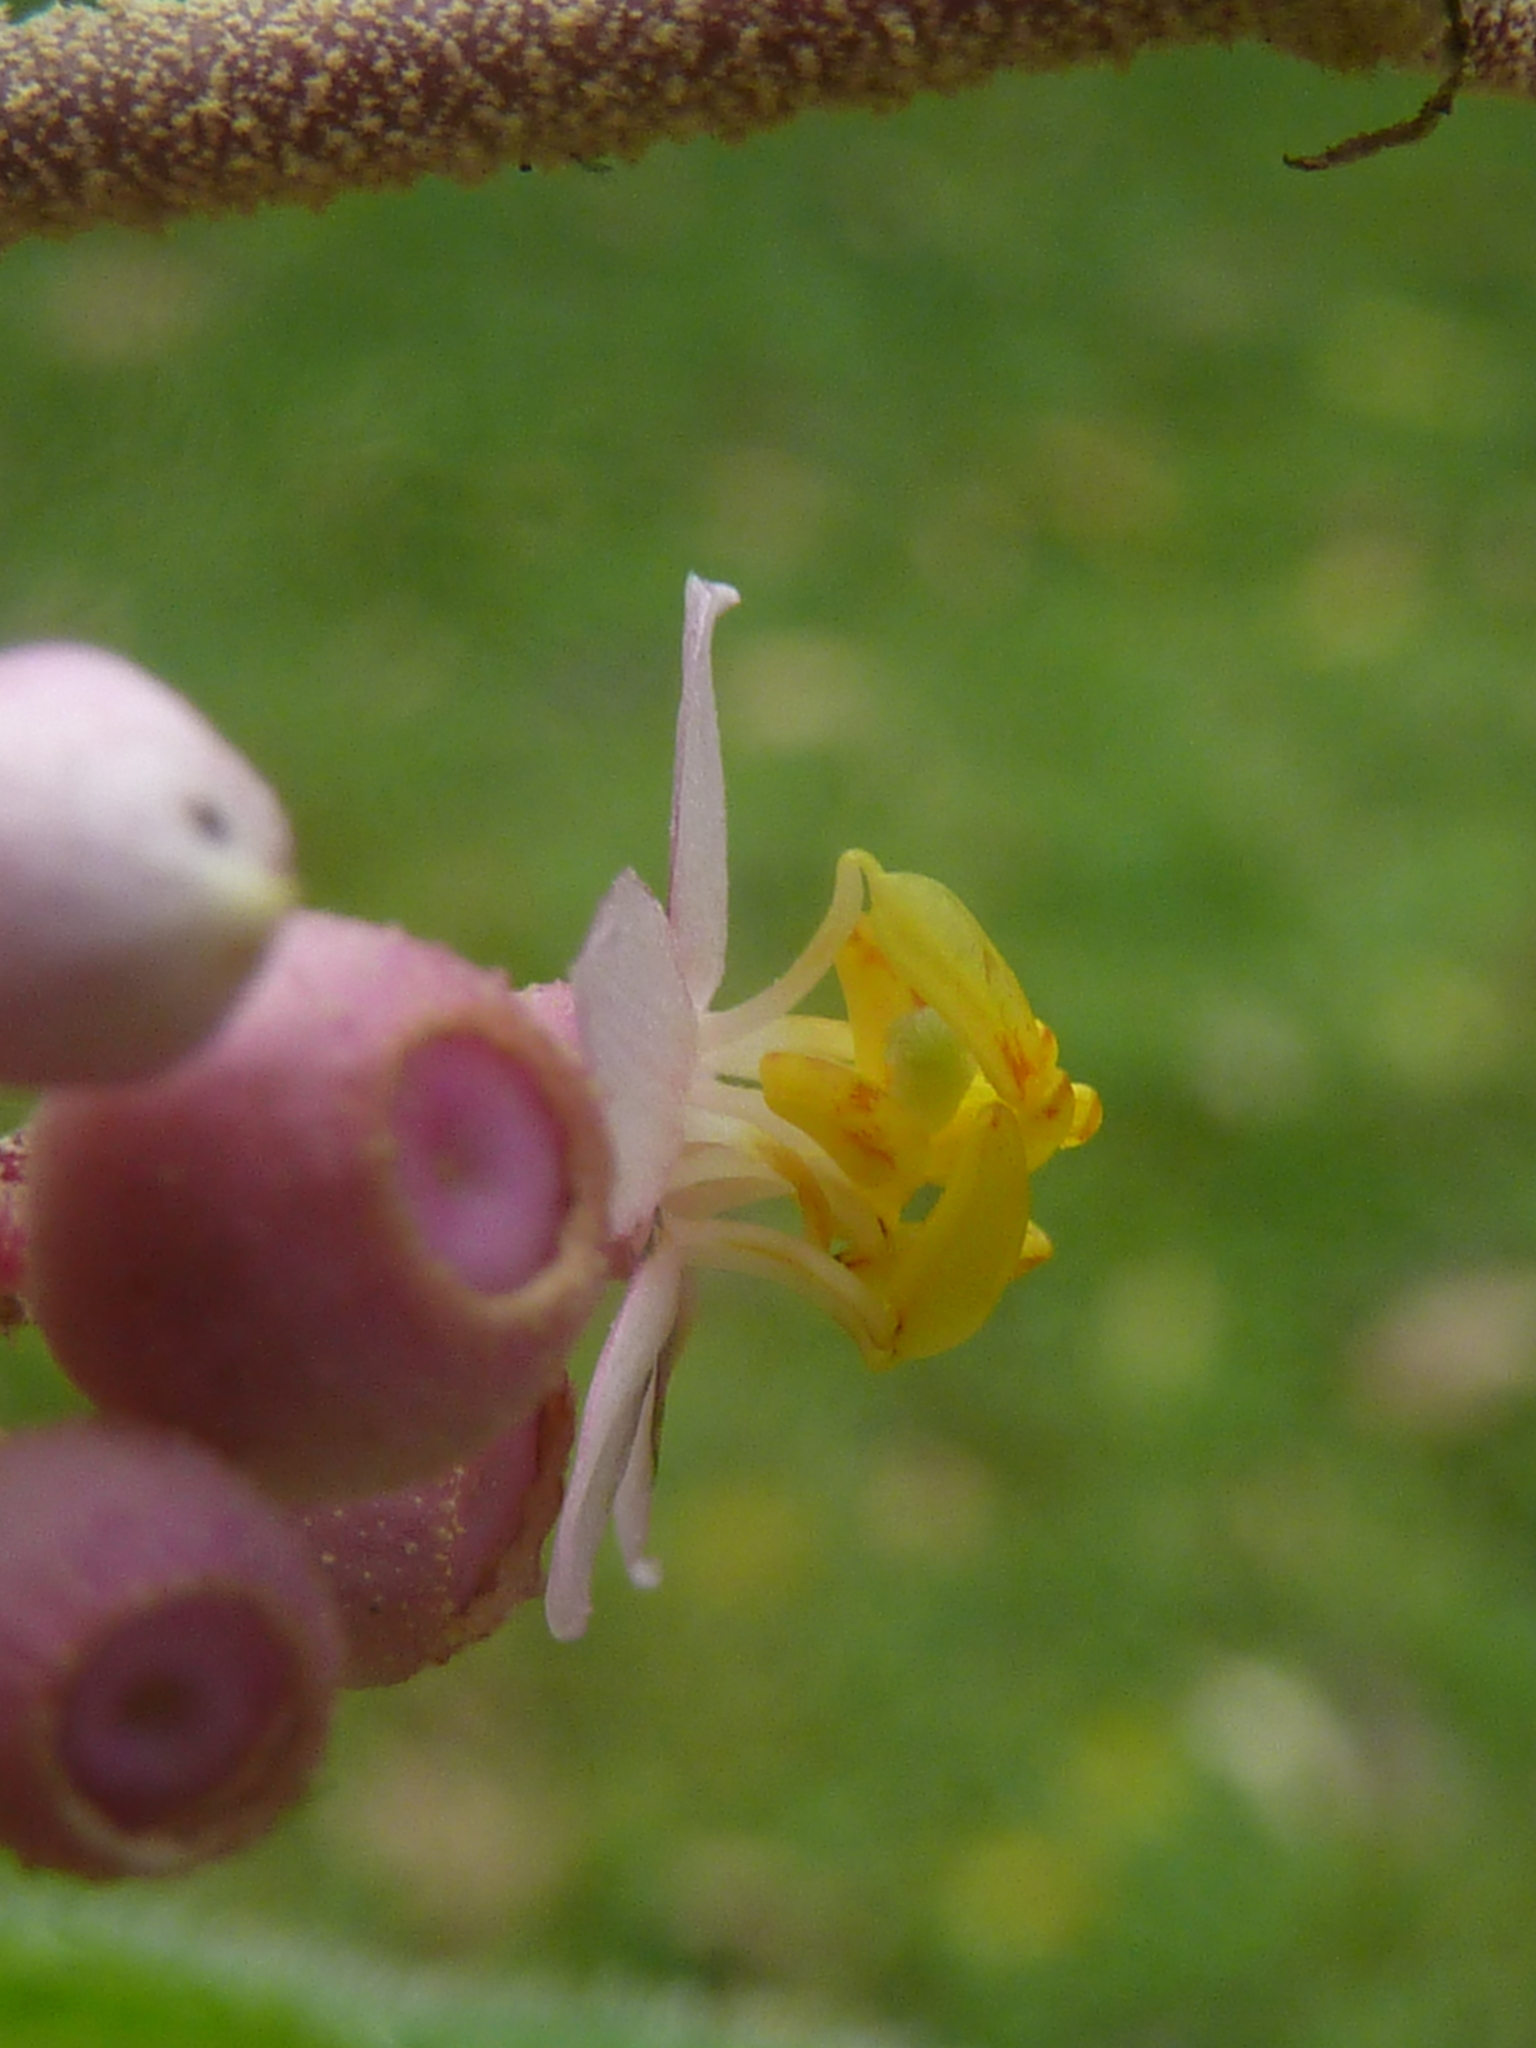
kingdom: Plantae
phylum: Tracheophyta
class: Magnoliopsida
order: Myrtales
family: Melastomataceae
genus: Miconia
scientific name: Miconia subcrustulata
